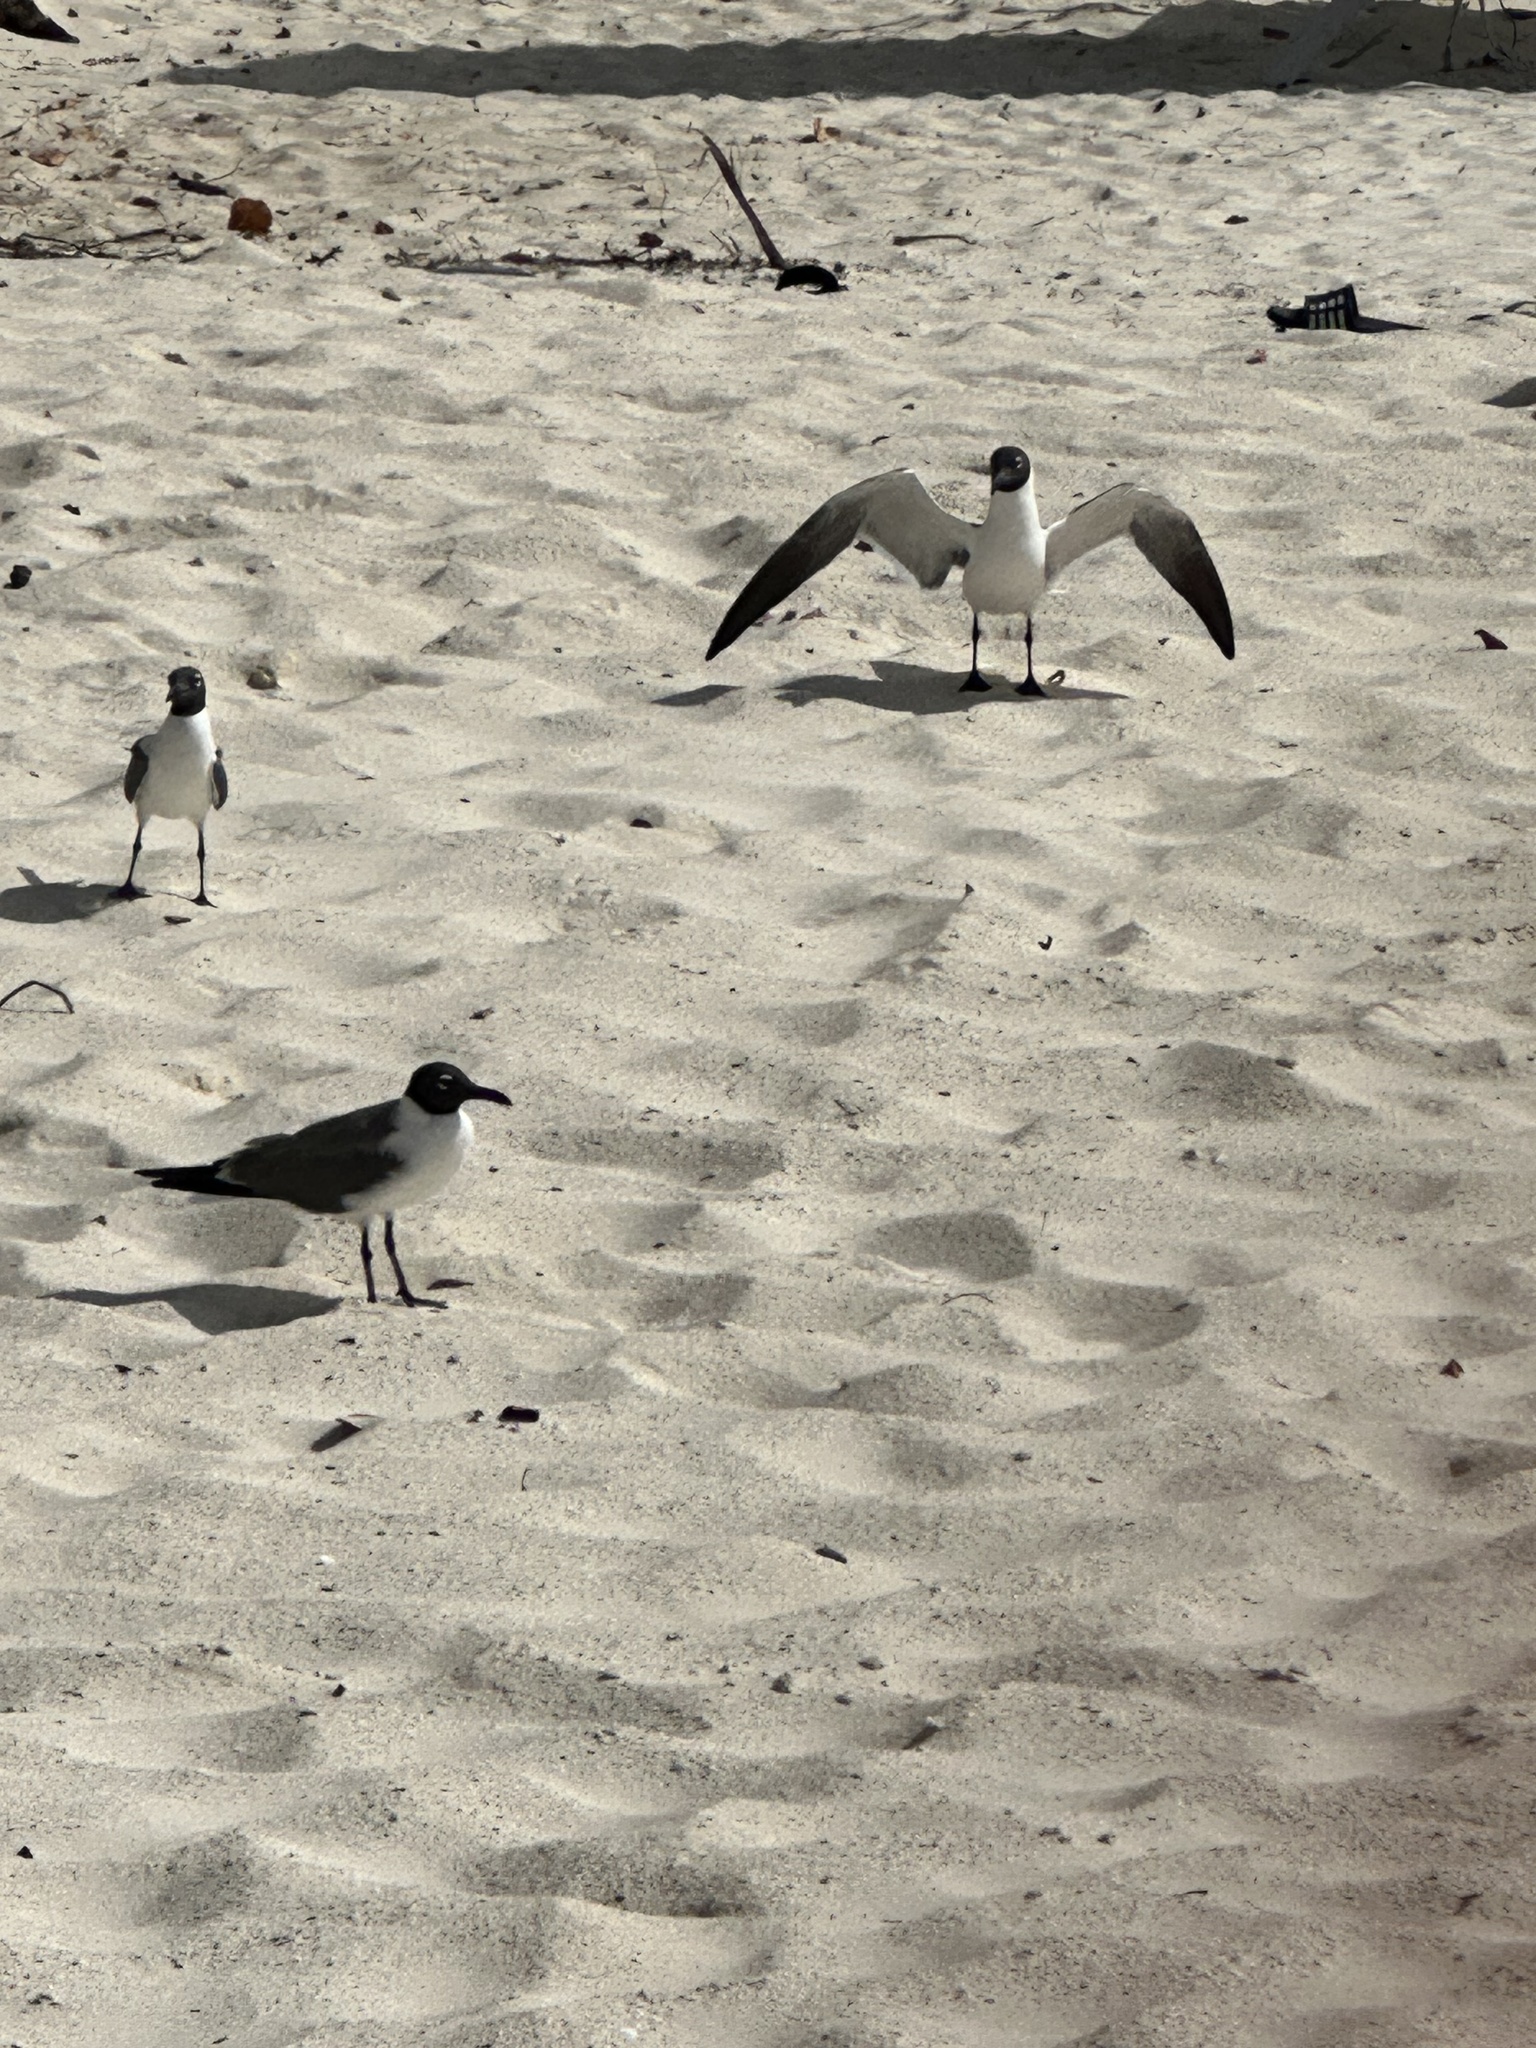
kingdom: Animalia
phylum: Chordata
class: Aves
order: Charadriiformes
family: Laridae
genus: Leucophaeus
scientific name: Leucophaeus atricilla
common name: Laughing gull
